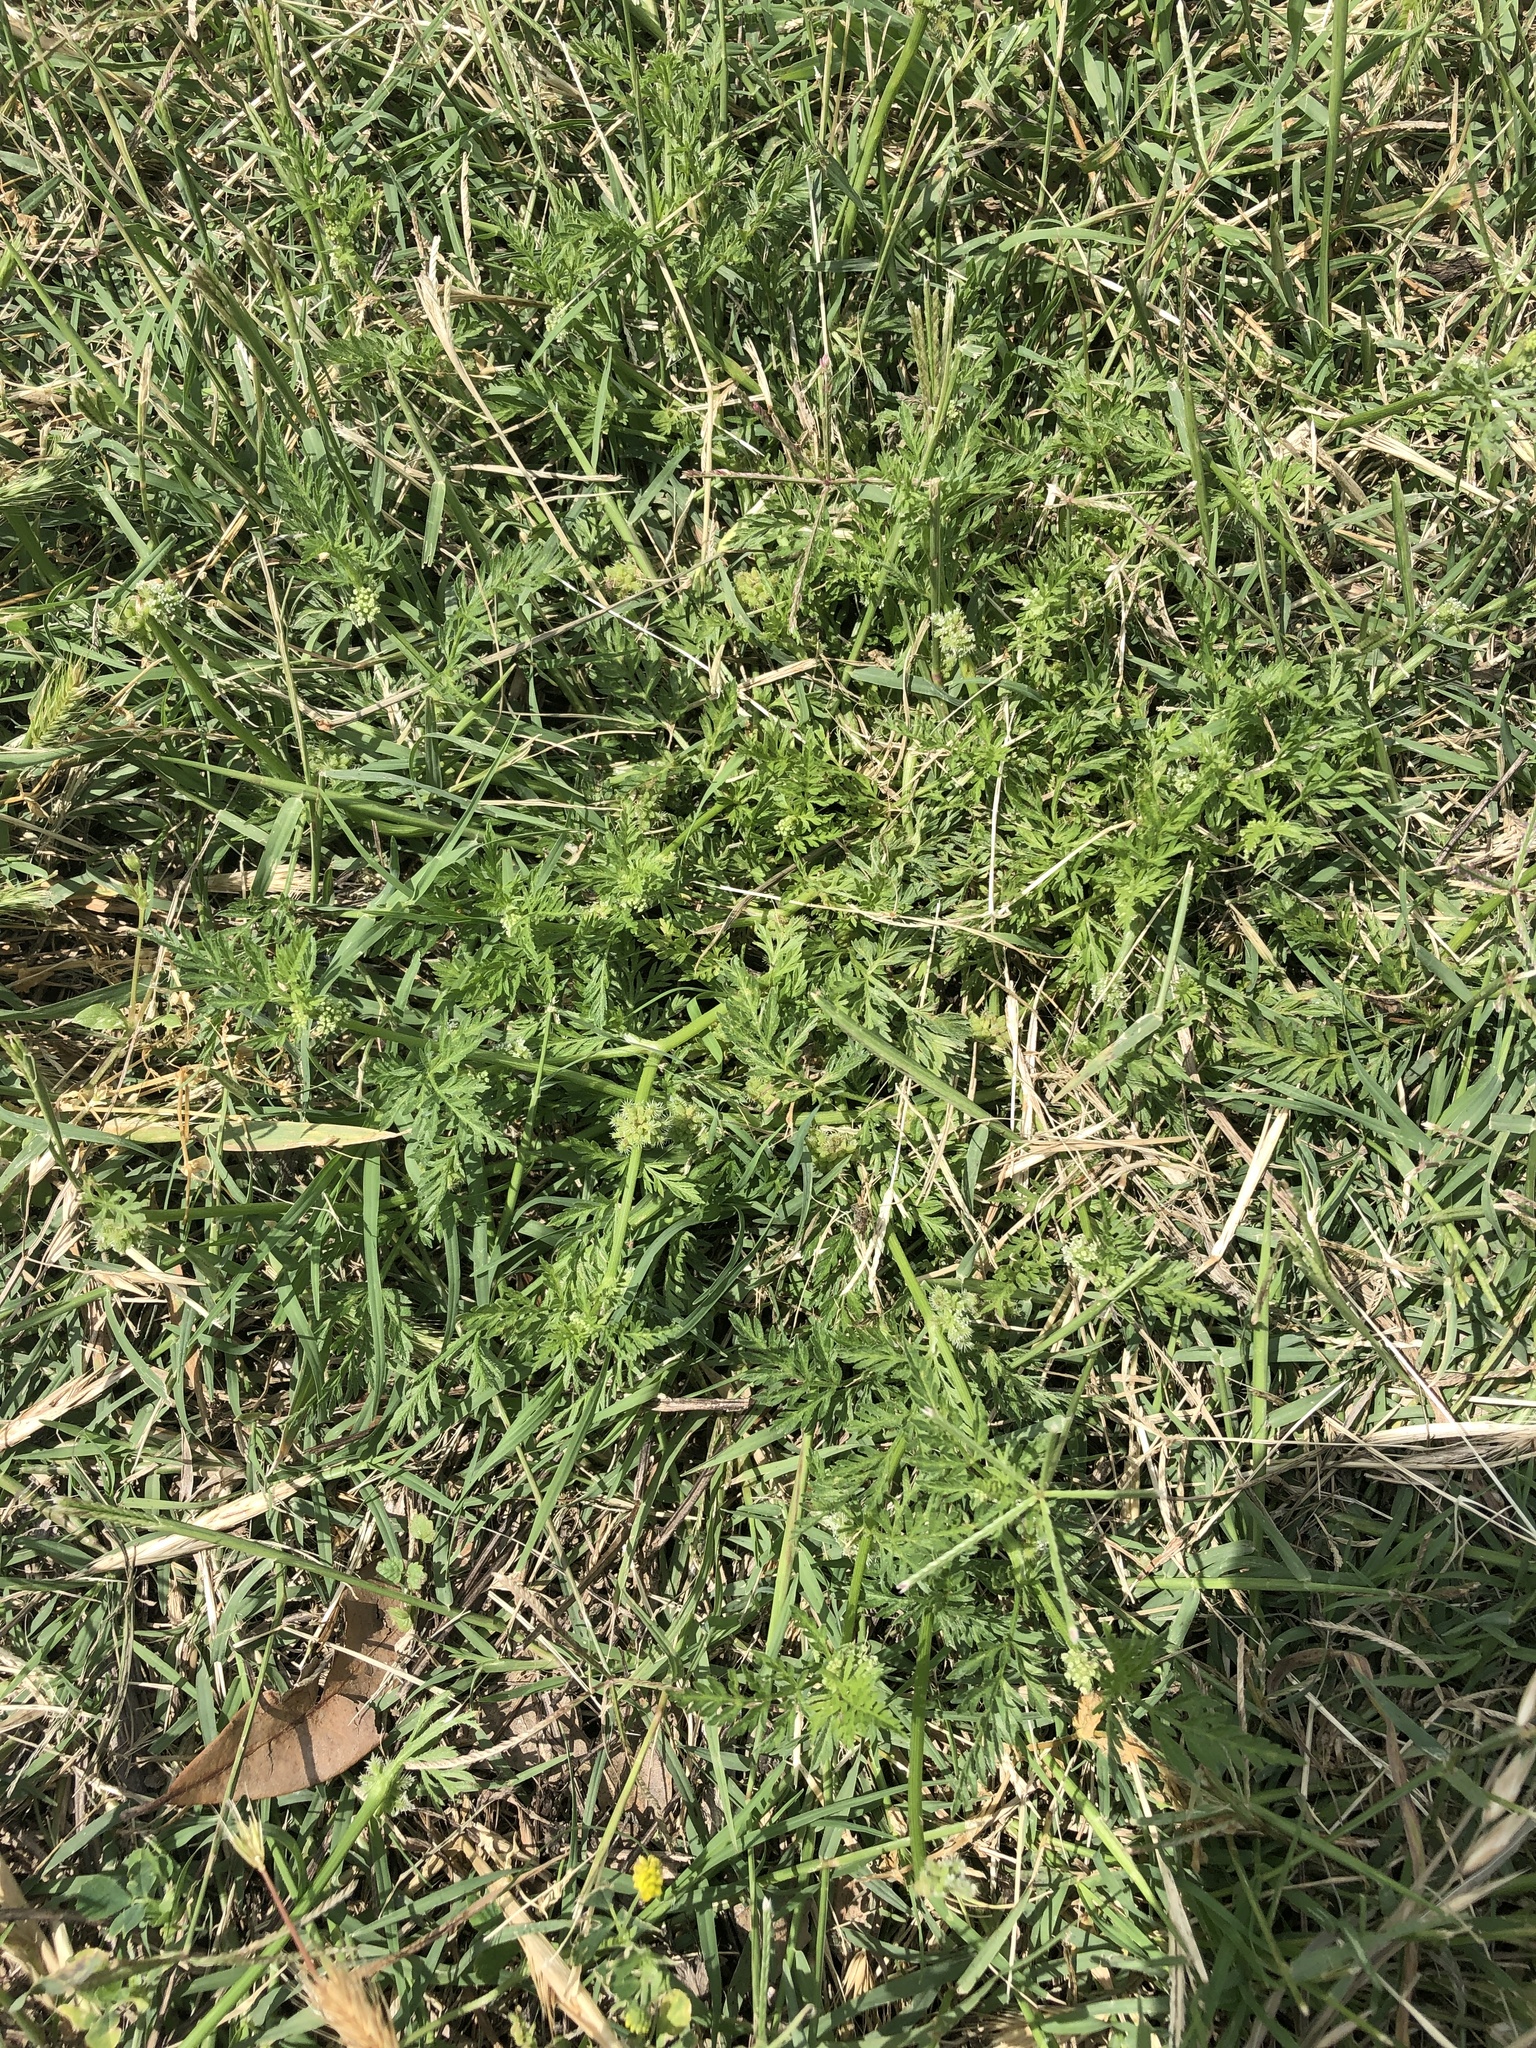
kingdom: Plantae
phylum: Tracheophyta
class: Magnoliopsida
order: Apiales
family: Apiaceae
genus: Torilis
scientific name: Torilis nodosa
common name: Knotted hedge-parsley
